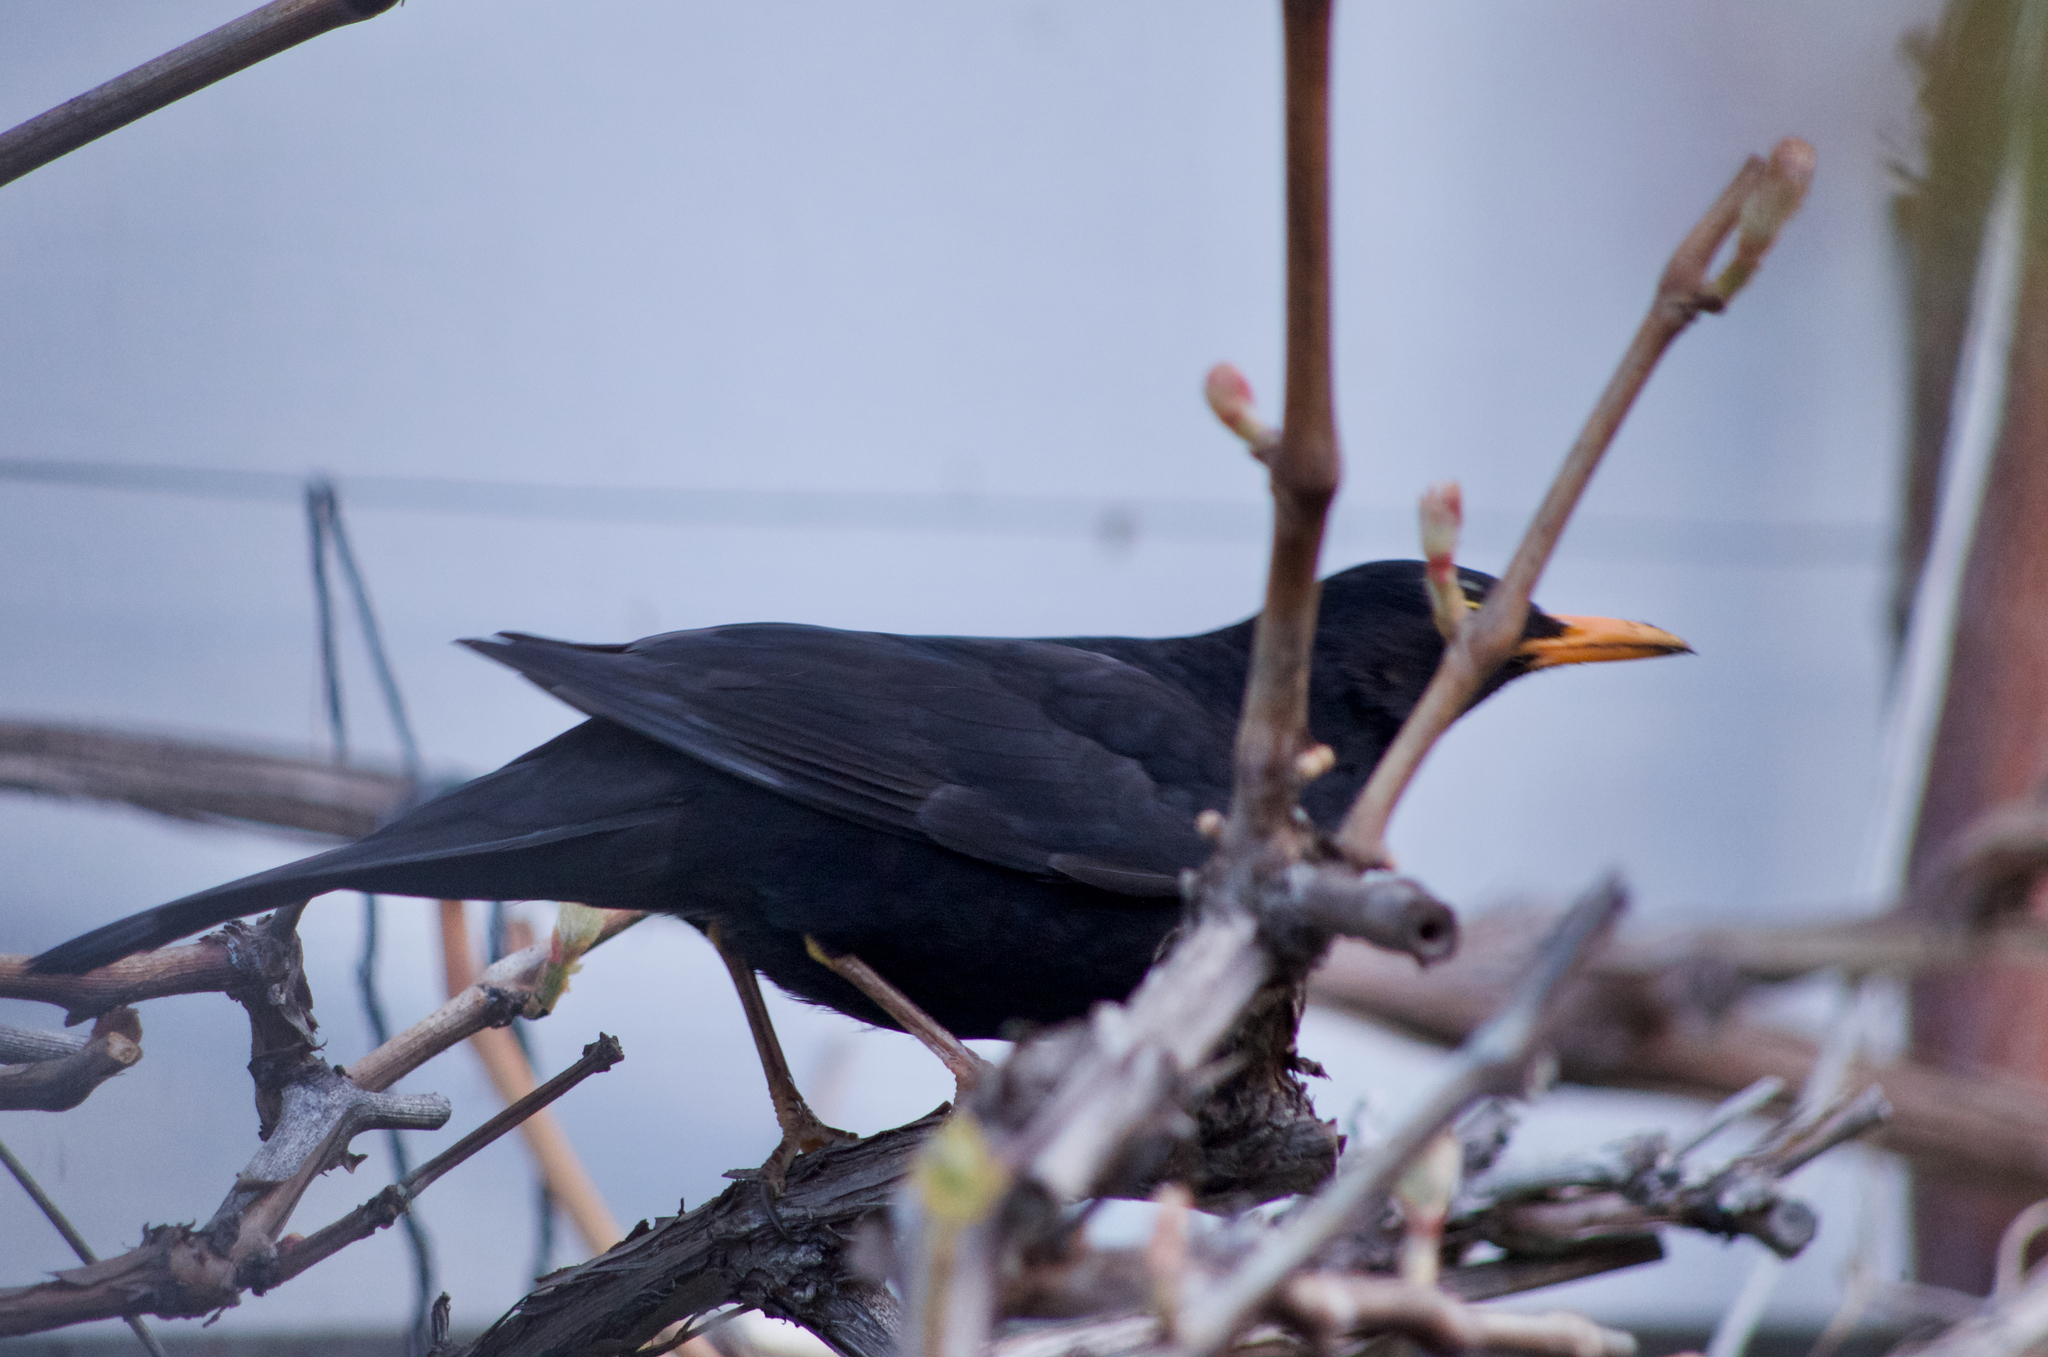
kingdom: Animalia
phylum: Chordata
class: Aves
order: Passeriformes
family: Turdidae
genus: Turdus
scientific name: Turdus merula
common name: Common blackbird
